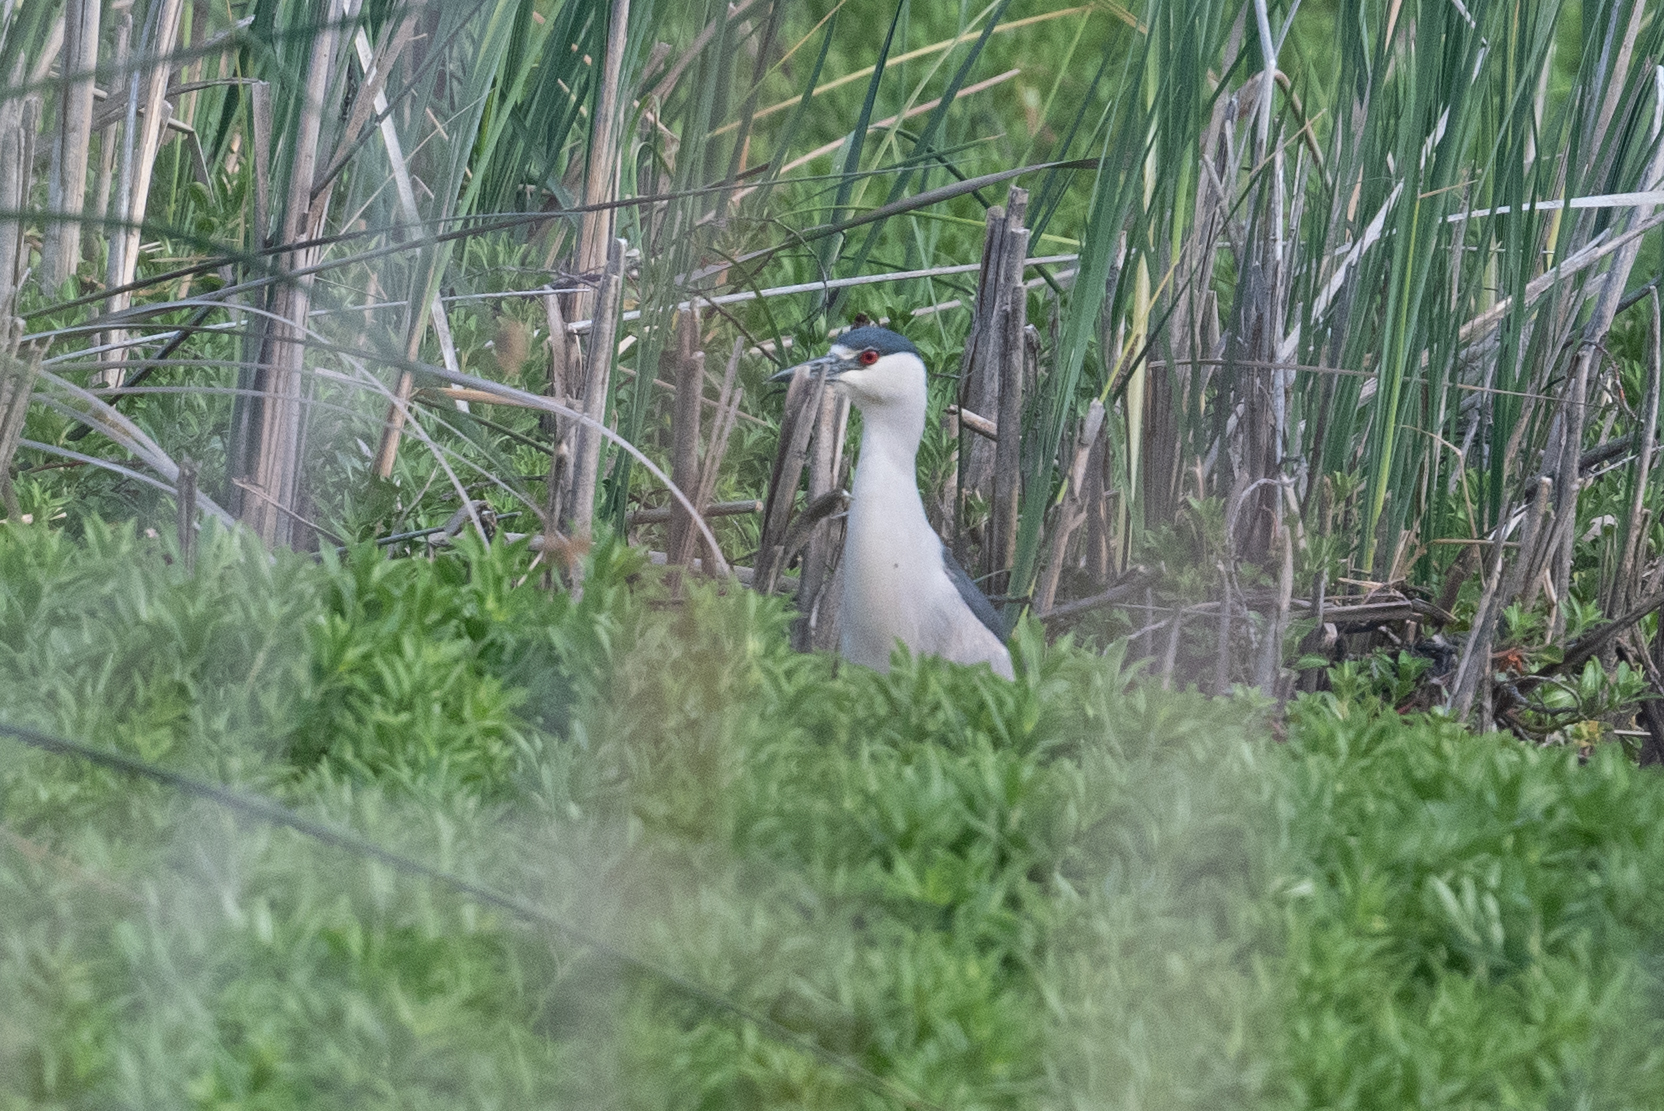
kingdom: Animalia
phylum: Chordata
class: Aves
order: Pelecaniformes
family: Ardeidae
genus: Nycticorax
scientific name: Nycticorax nycticorax
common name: Black-crowned night heron
